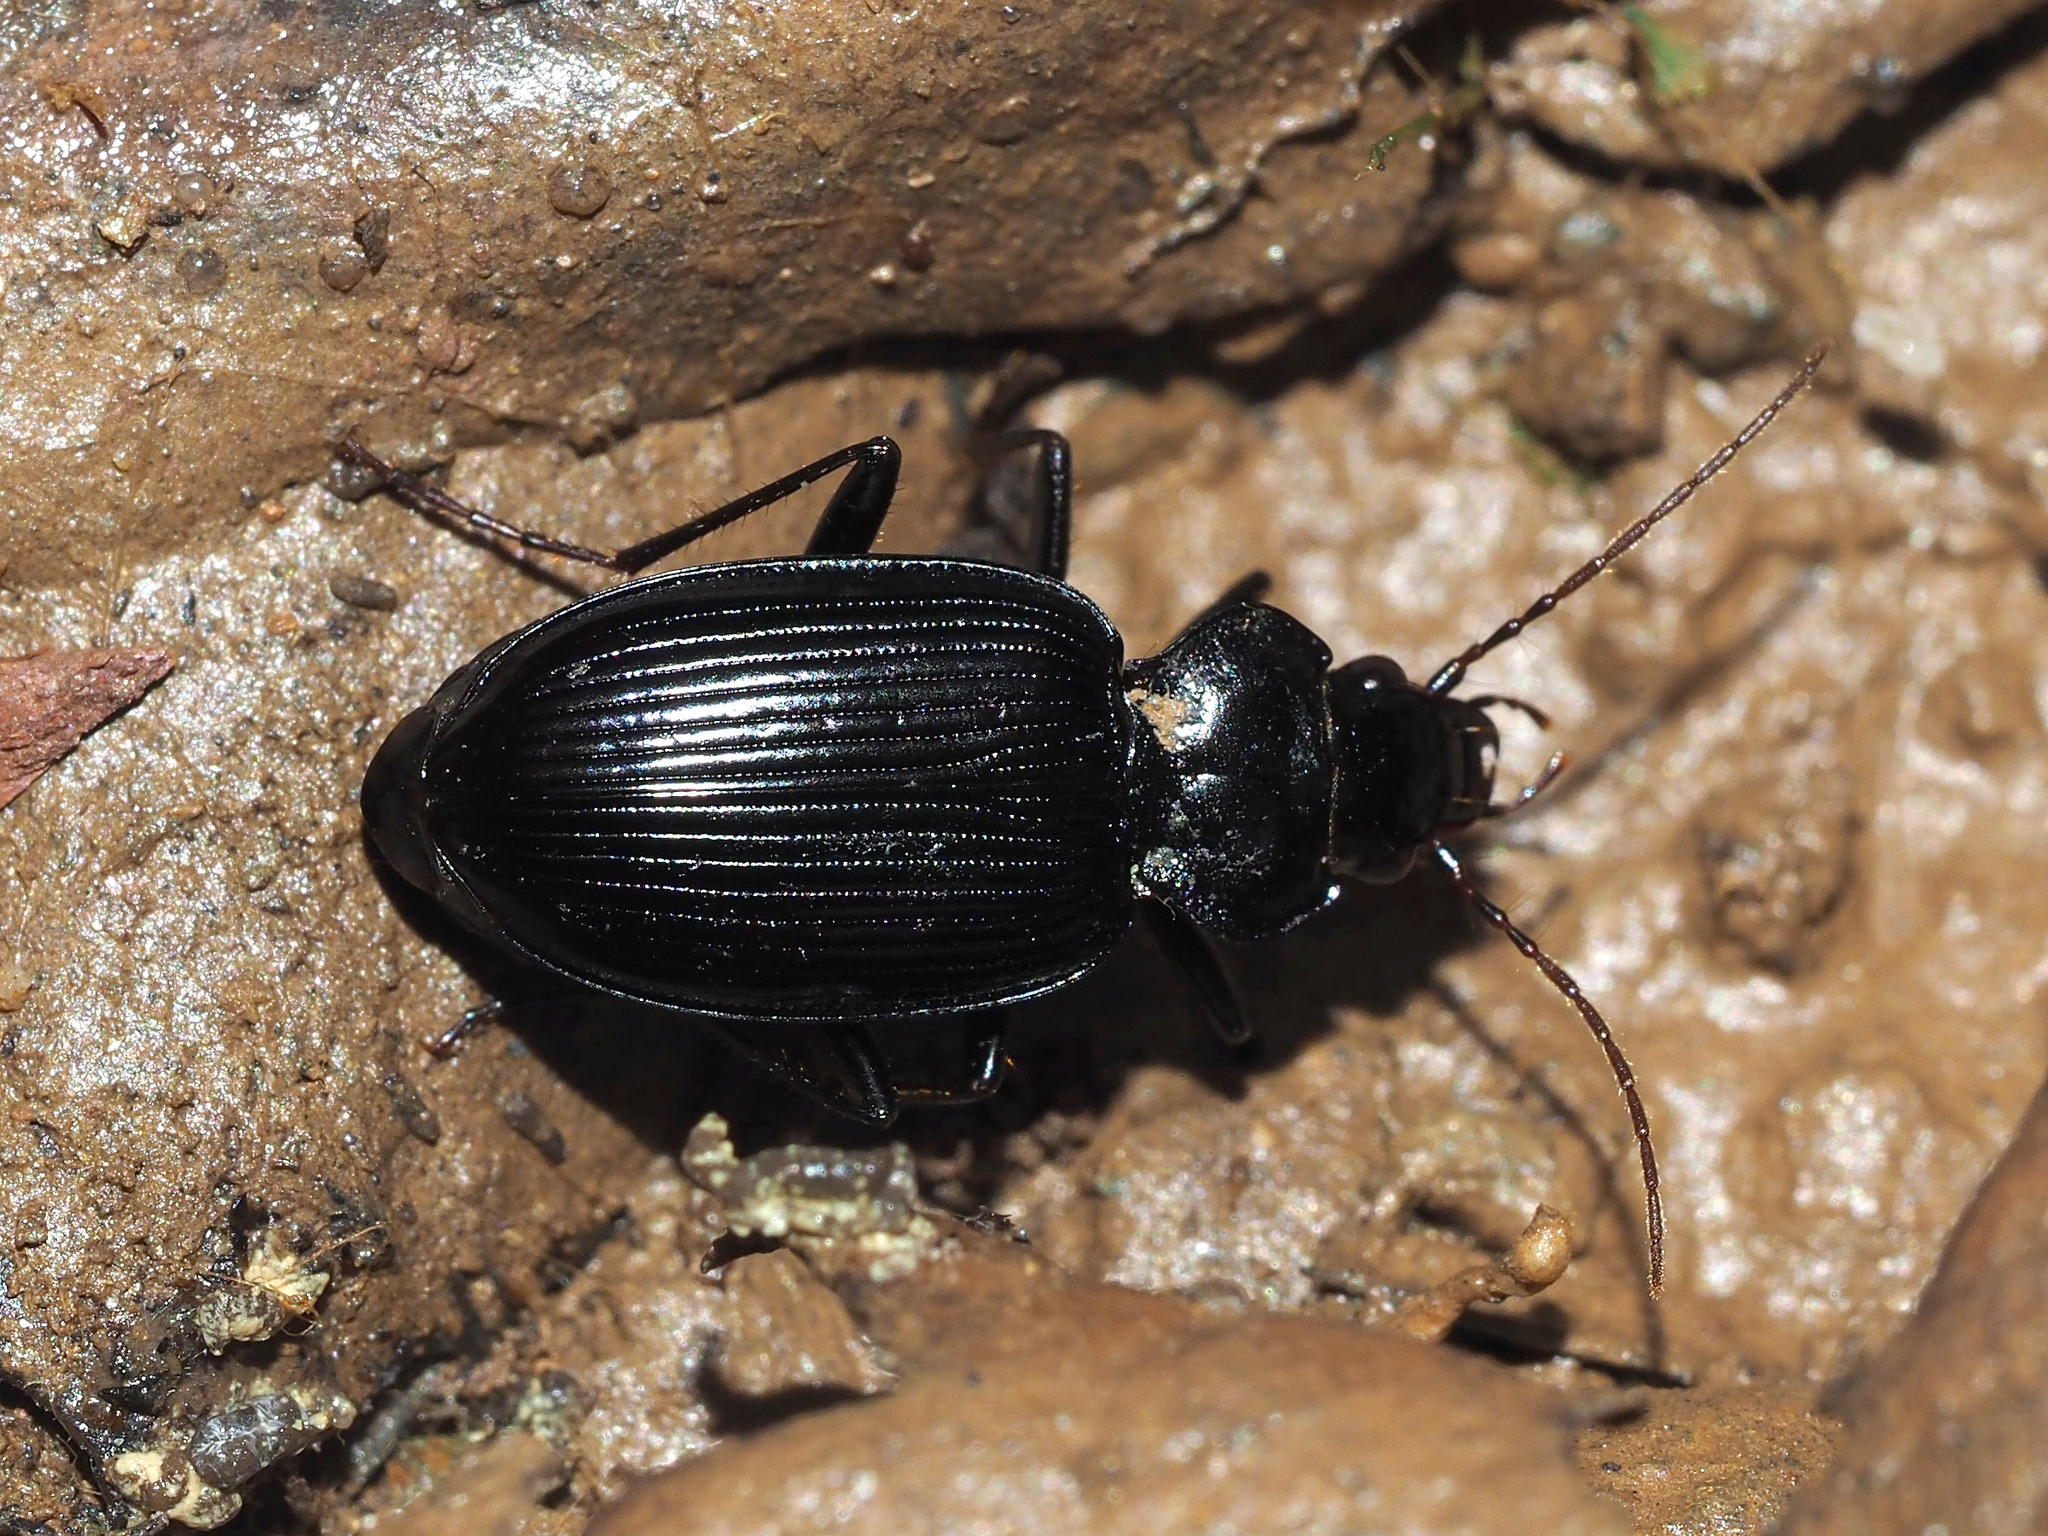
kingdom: Animalia
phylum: Arthropoda
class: Insecta
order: Coleoptera
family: Carabidae
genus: Nebria
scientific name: Nebria andalusia
